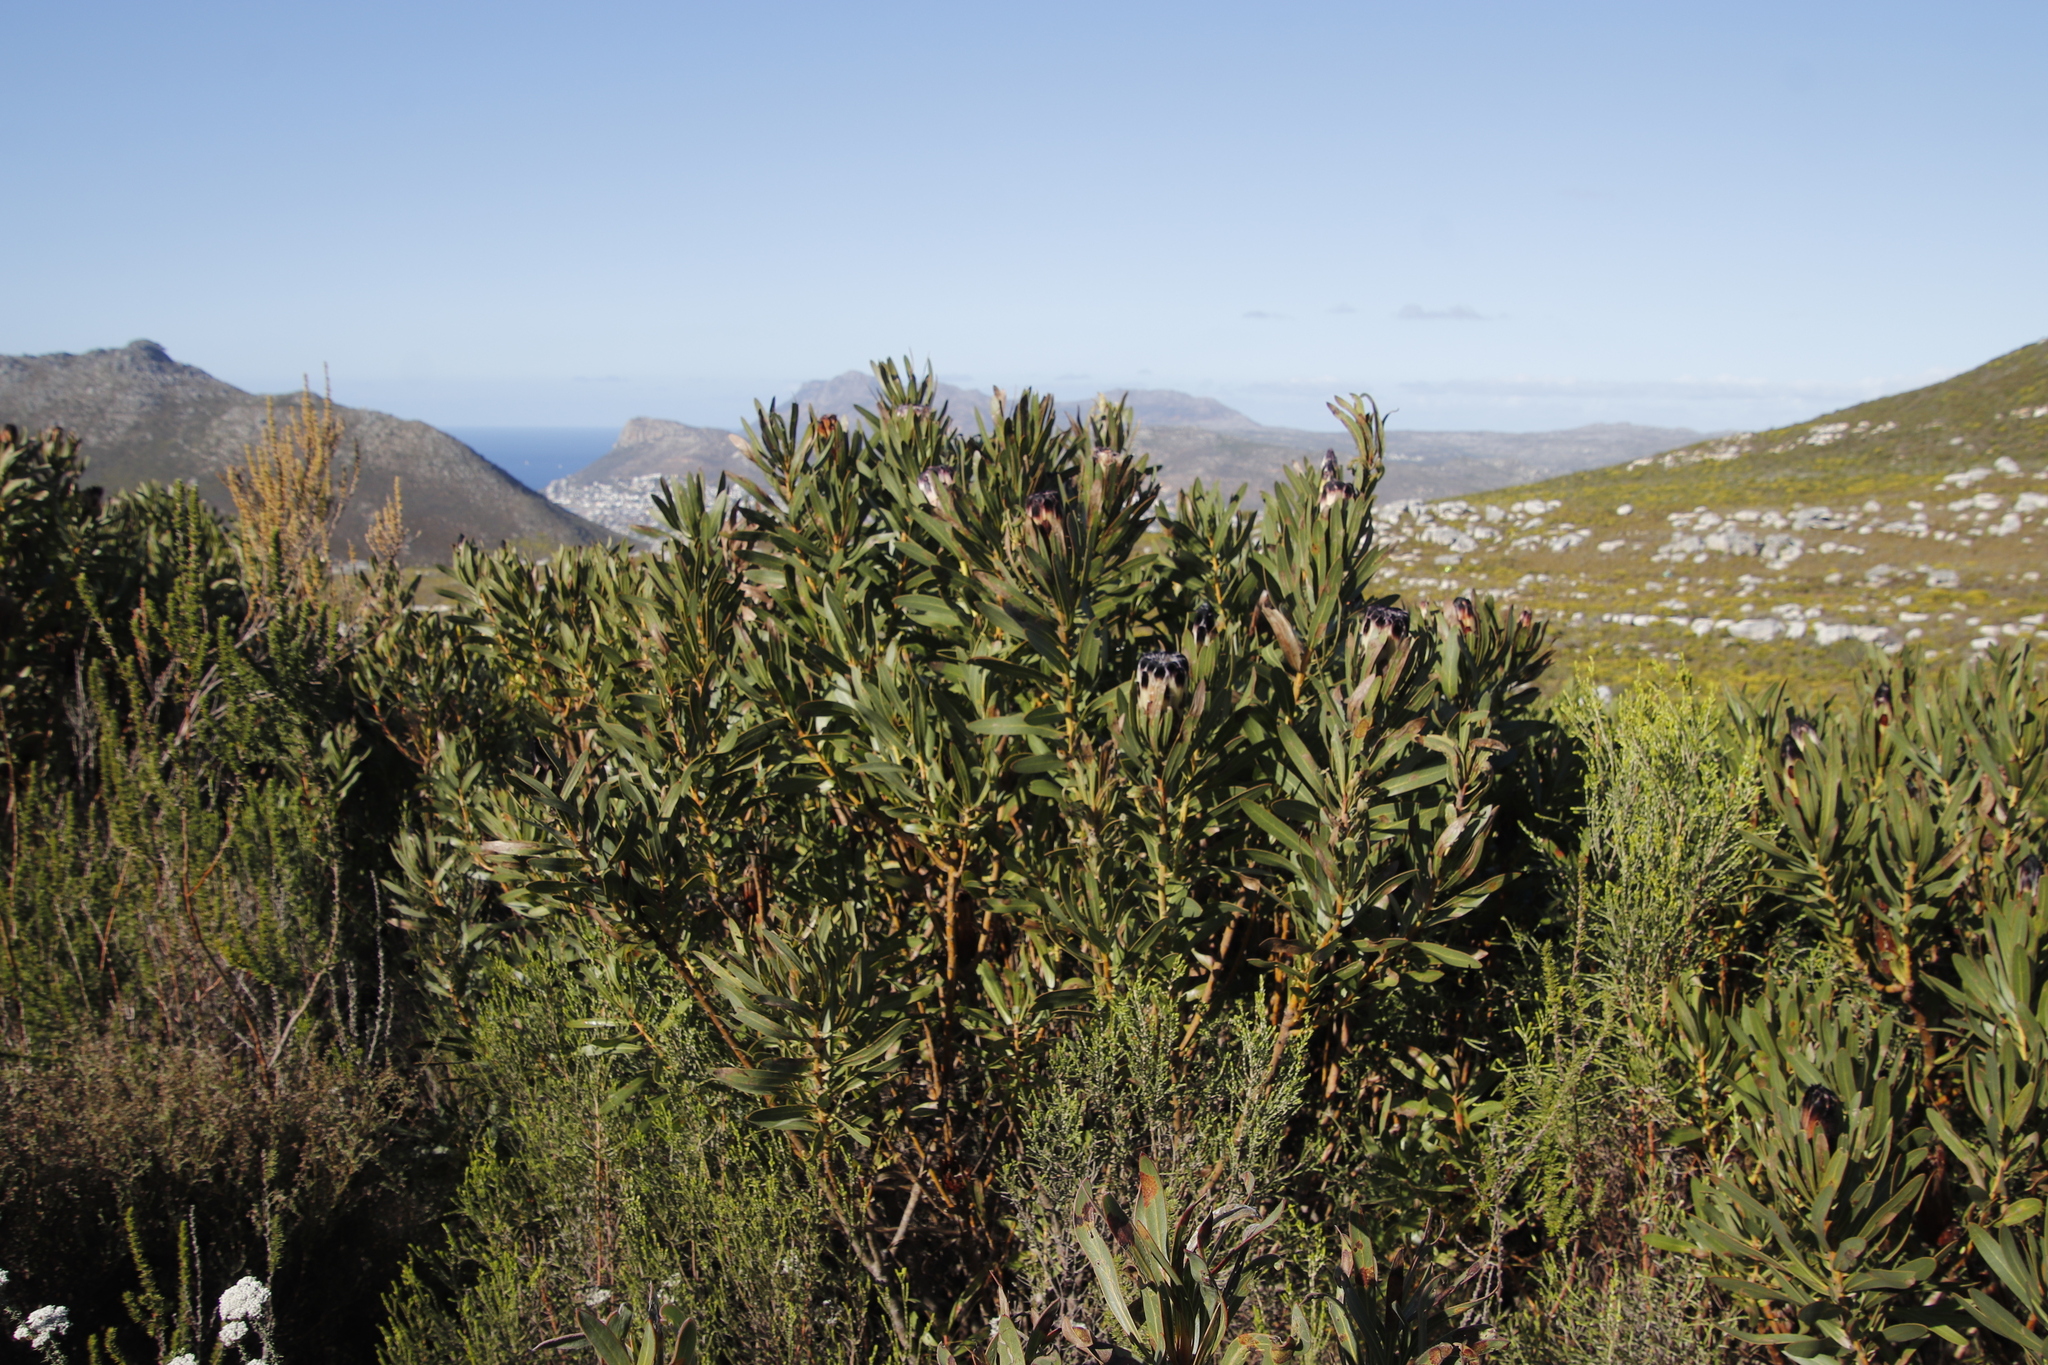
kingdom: Plantae
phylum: Tracheophyta
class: Magnoliopsida
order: Proteales
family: Proteaceae
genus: Protea
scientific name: Protea lepidocarpodendron
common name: Black-bearded protea
